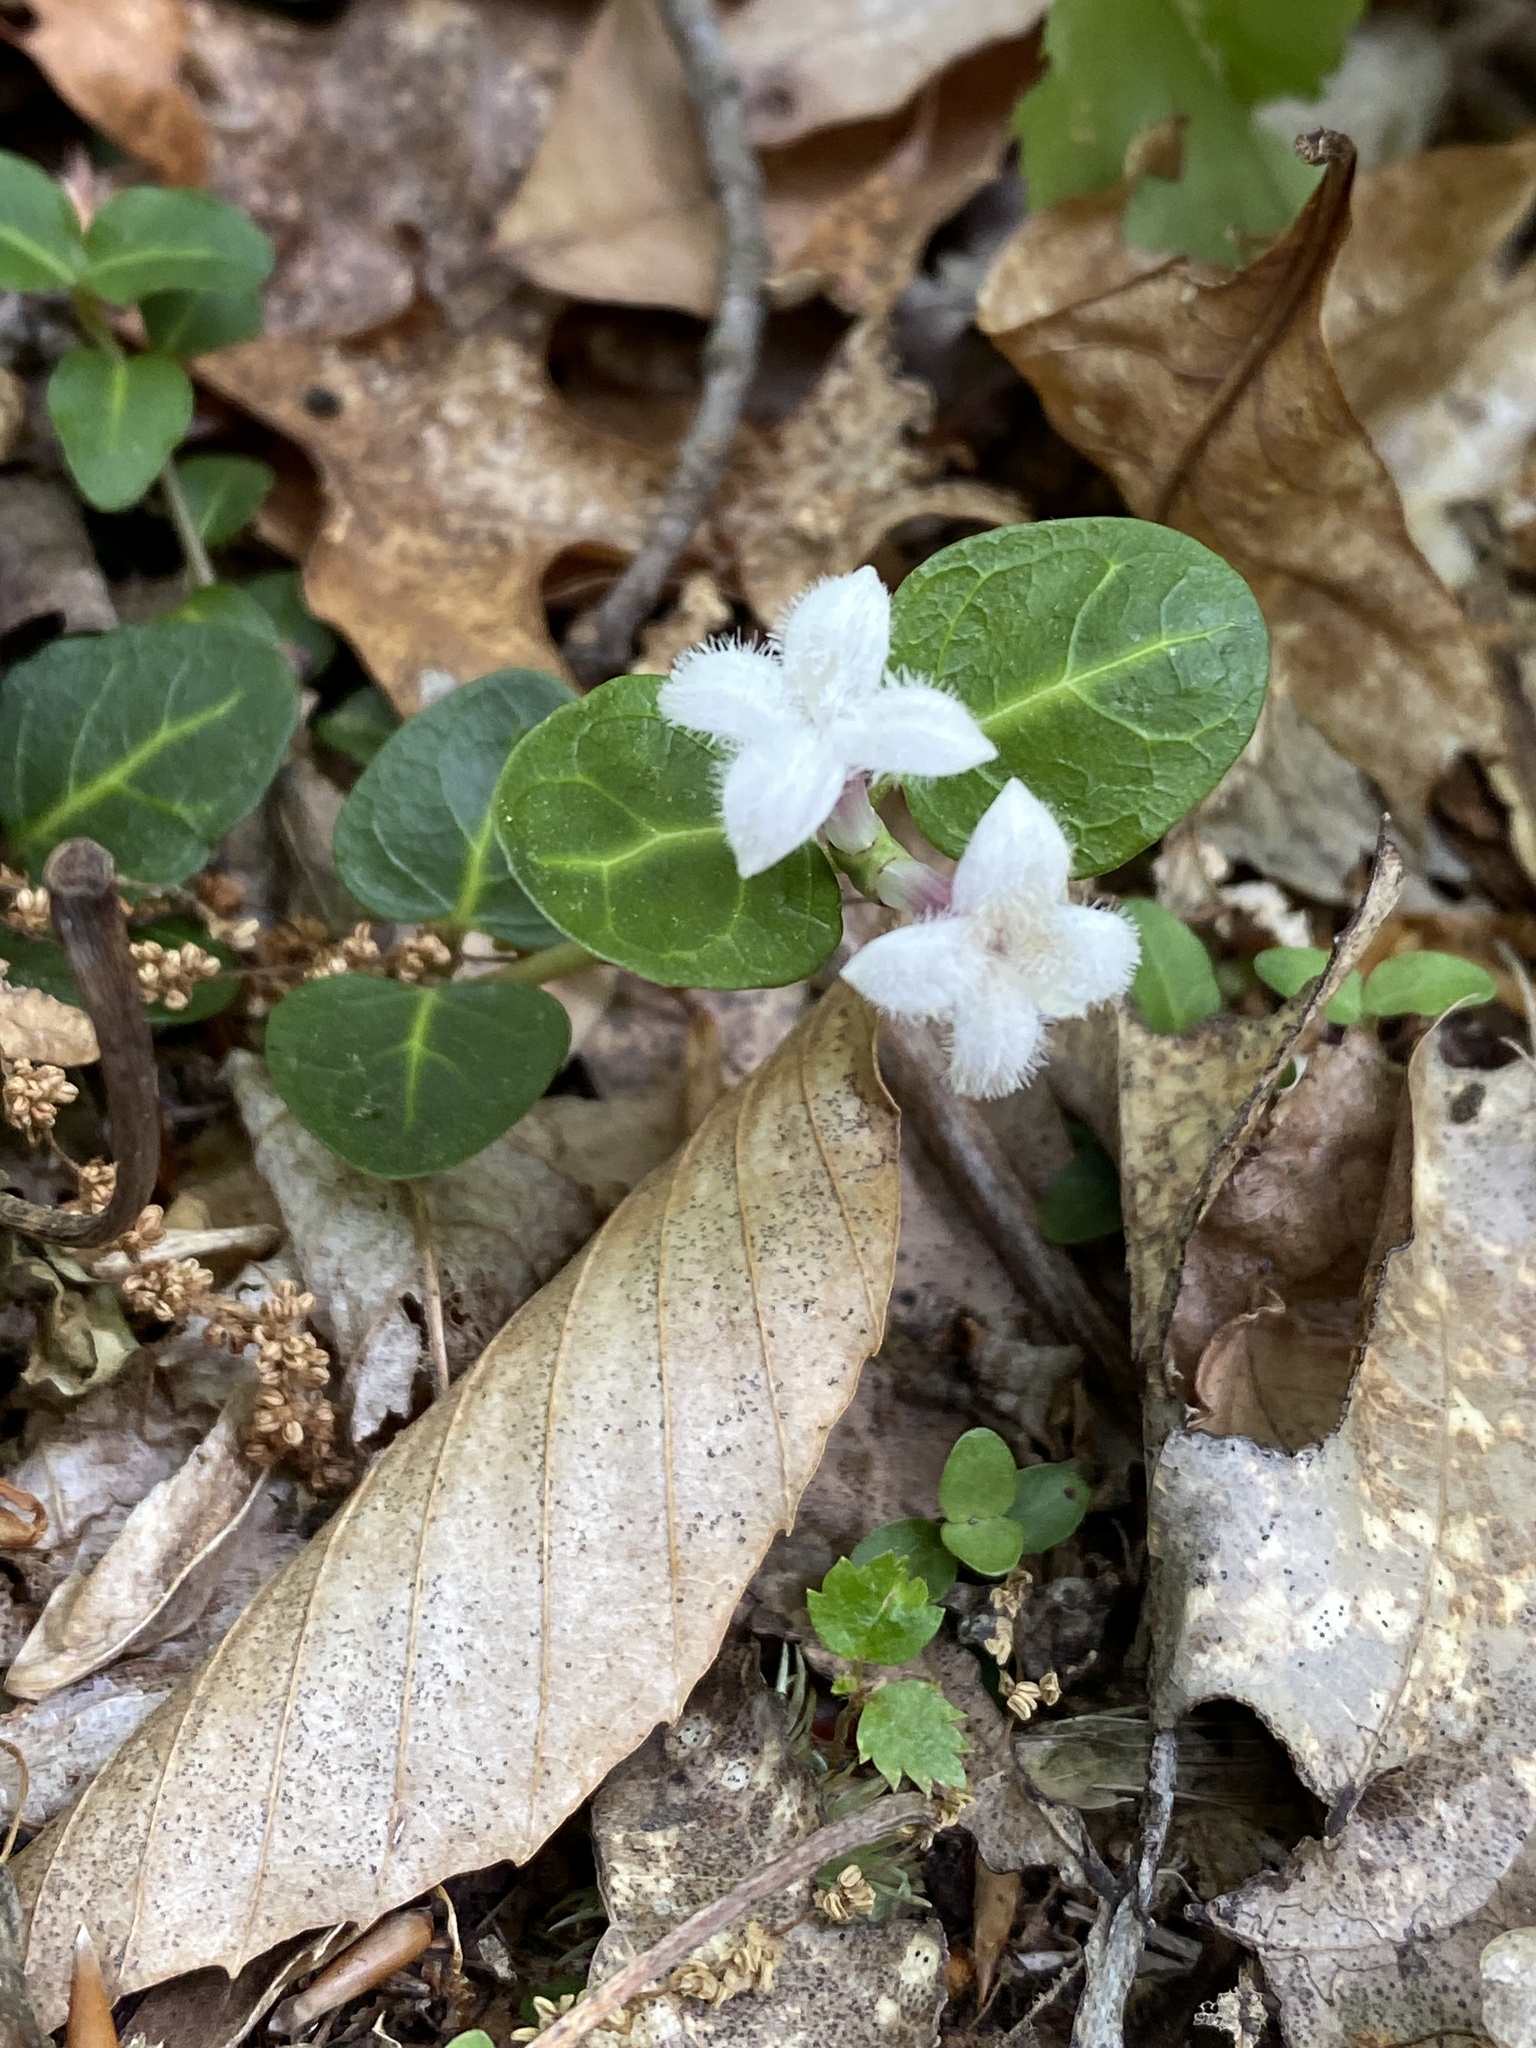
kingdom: Plantae
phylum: Tracheophyta
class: Magnoliopsida
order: Gentianales
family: Rubiaceae
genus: Mitchella
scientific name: Mitchella repens
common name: Partridge-berry
